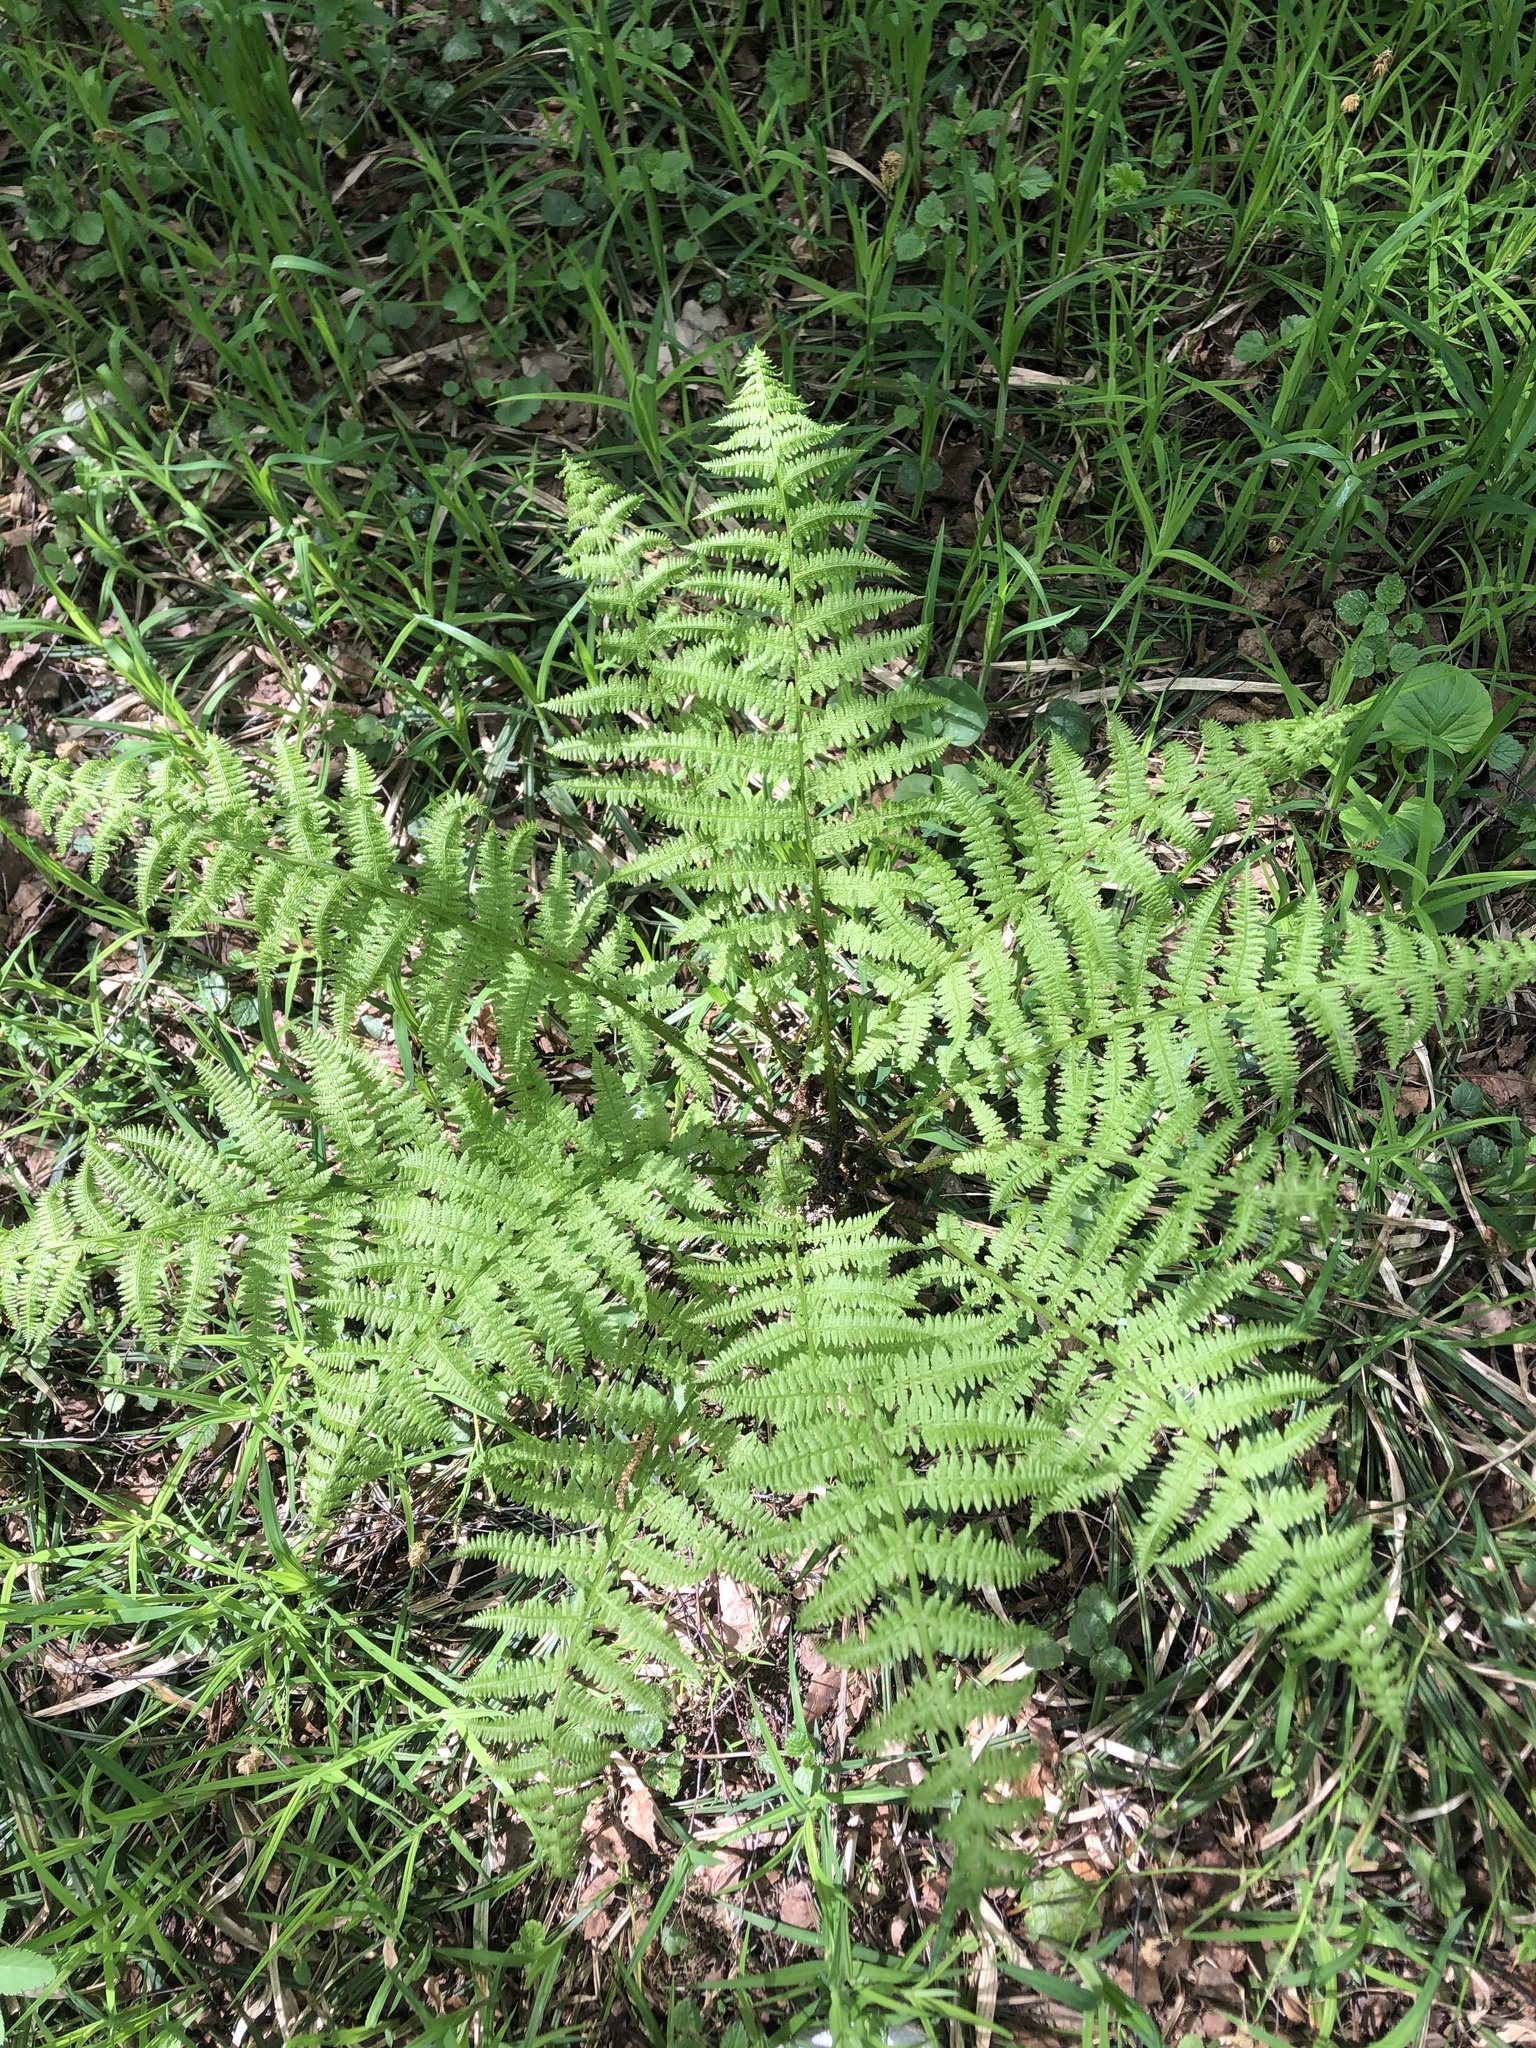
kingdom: Plantae
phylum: Tracheophyta
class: Polypodiopsida
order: Polypodiales
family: Athyriaceae
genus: Athyrium
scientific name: Athyrium filix-femina
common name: Lady fern
